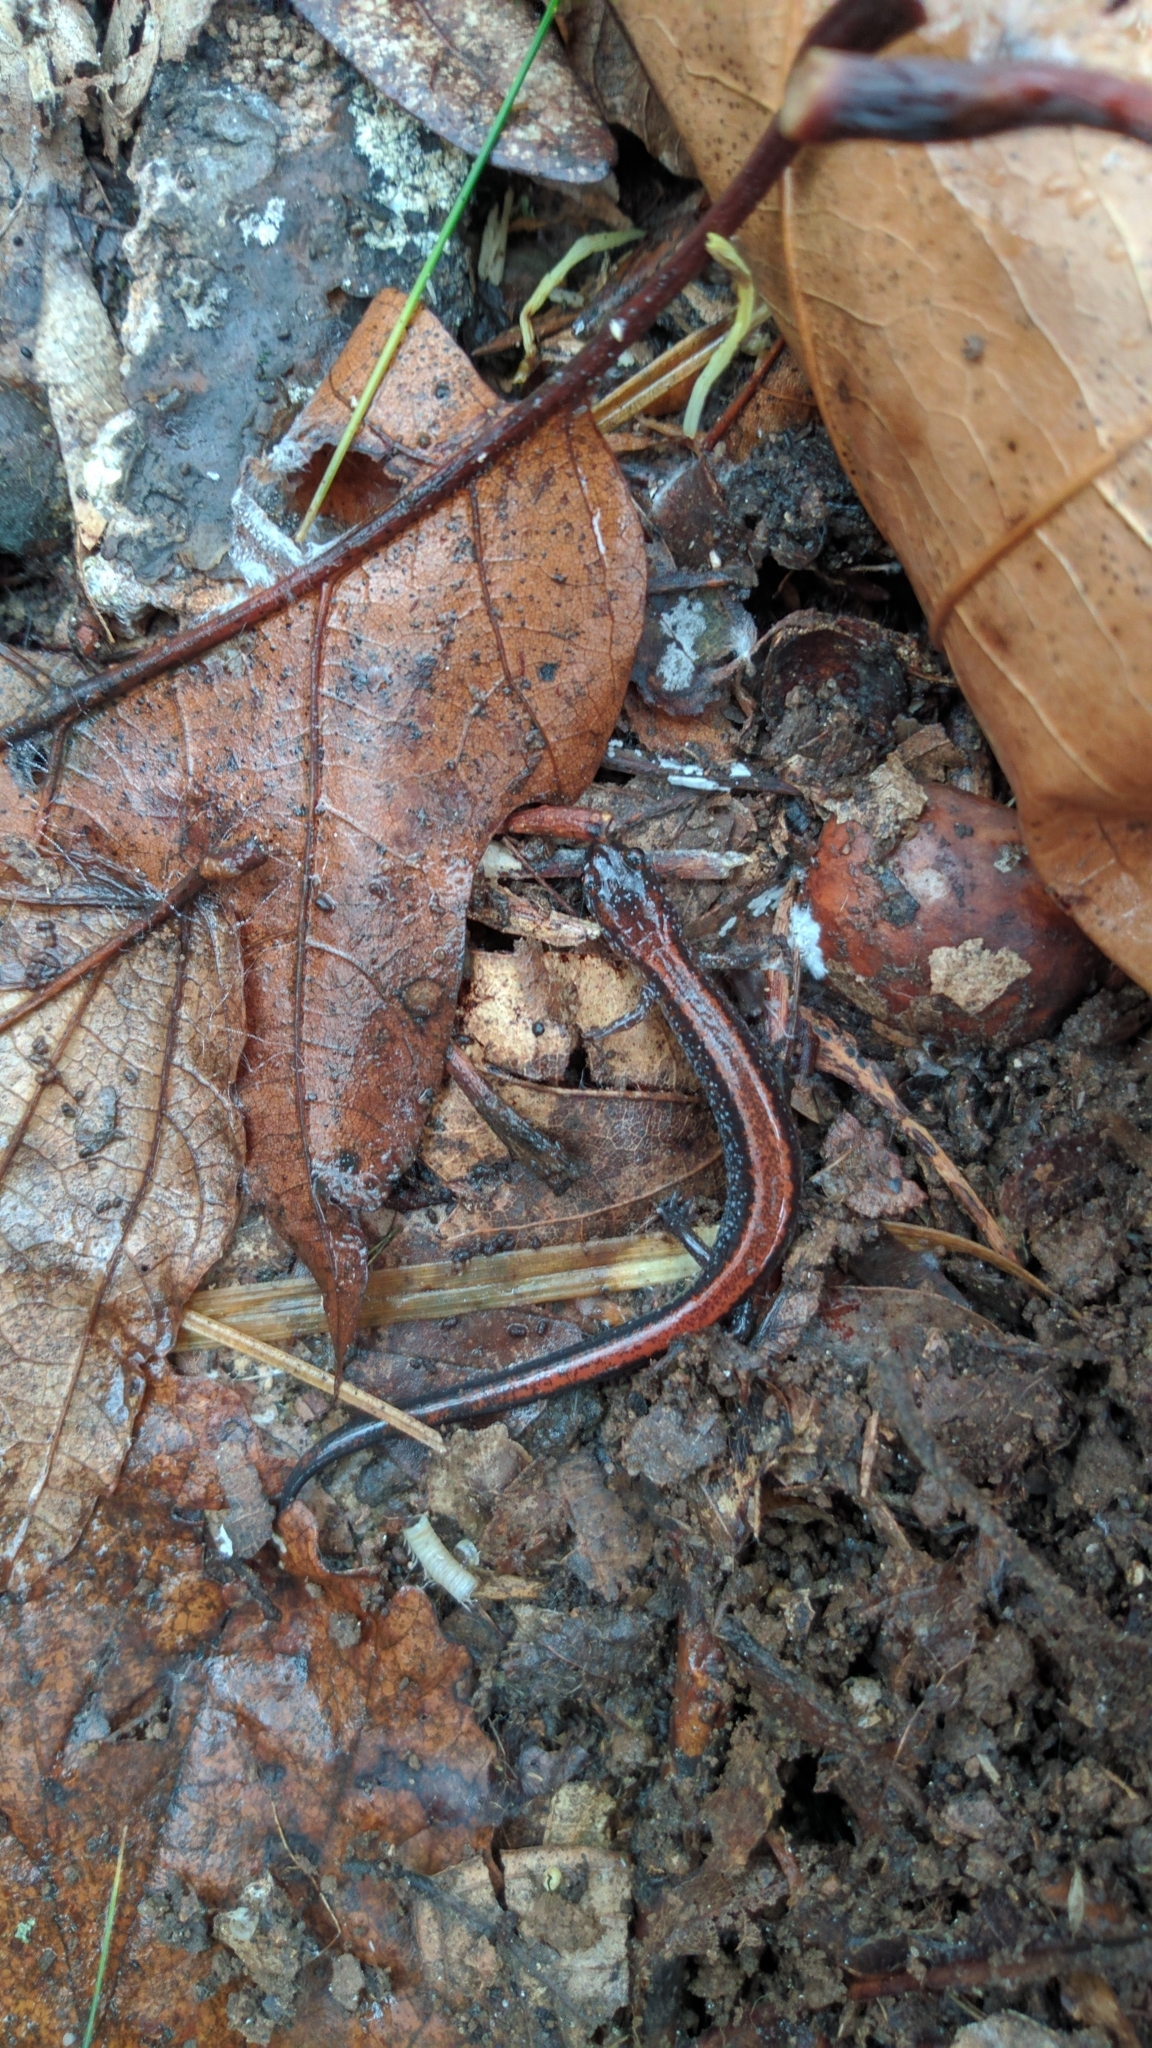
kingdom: Animalia
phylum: Chordata
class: Amphibia
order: Caudata
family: Plethodontidae
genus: Plethodon
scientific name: Plethodon cinereus
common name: Redback salamander
